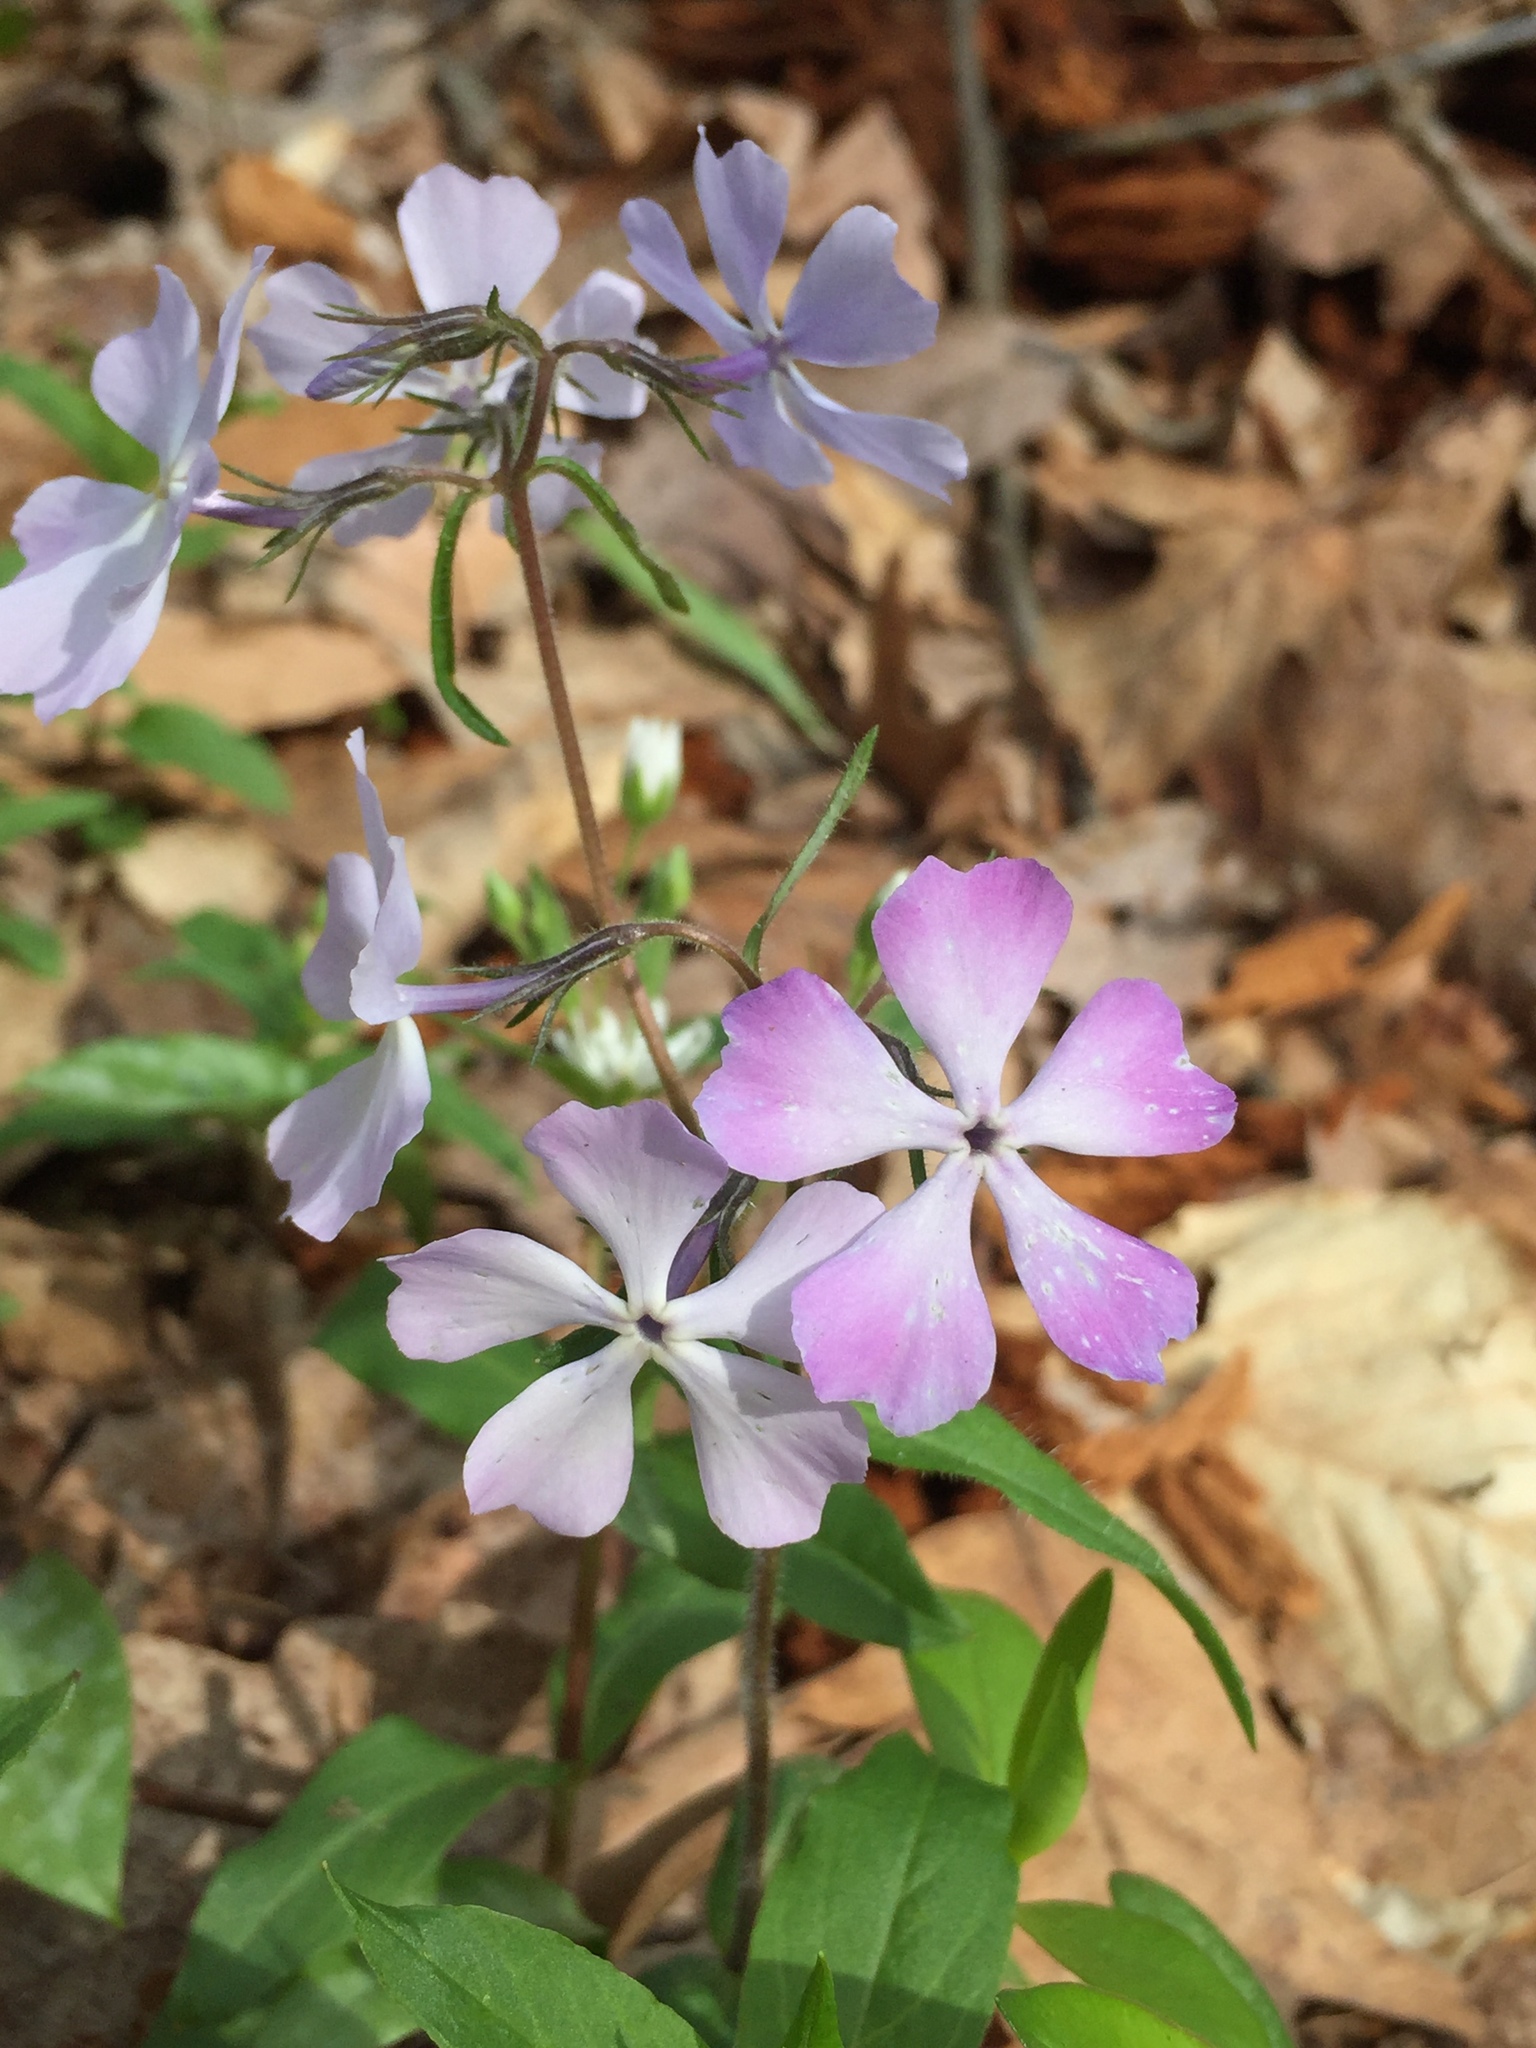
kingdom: Plantae
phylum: Tracheophyta
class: Magnoliopsida
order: Ericales
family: Polemoniaceae
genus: Phlox
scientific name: Phlox divaricata
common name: Blue phlox
